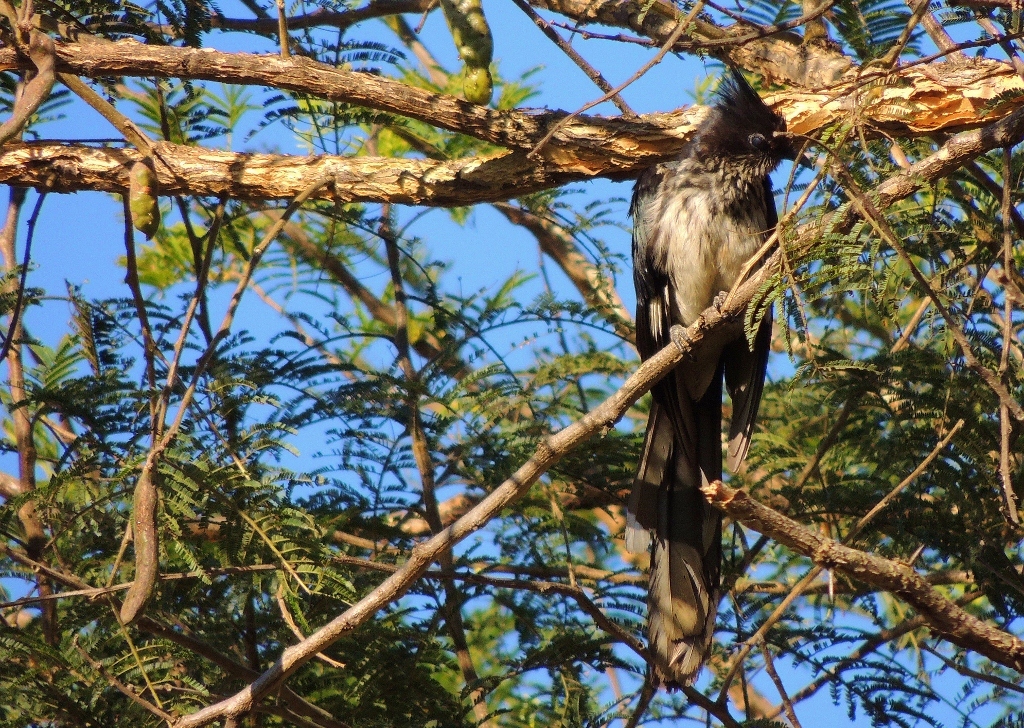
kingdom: Animalia
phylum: Chordata
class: Aves
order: Cuculiformes
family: Cuculidae
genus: Clamator
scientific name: Clamator levaillantii
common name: Levaillant's cuckoo
